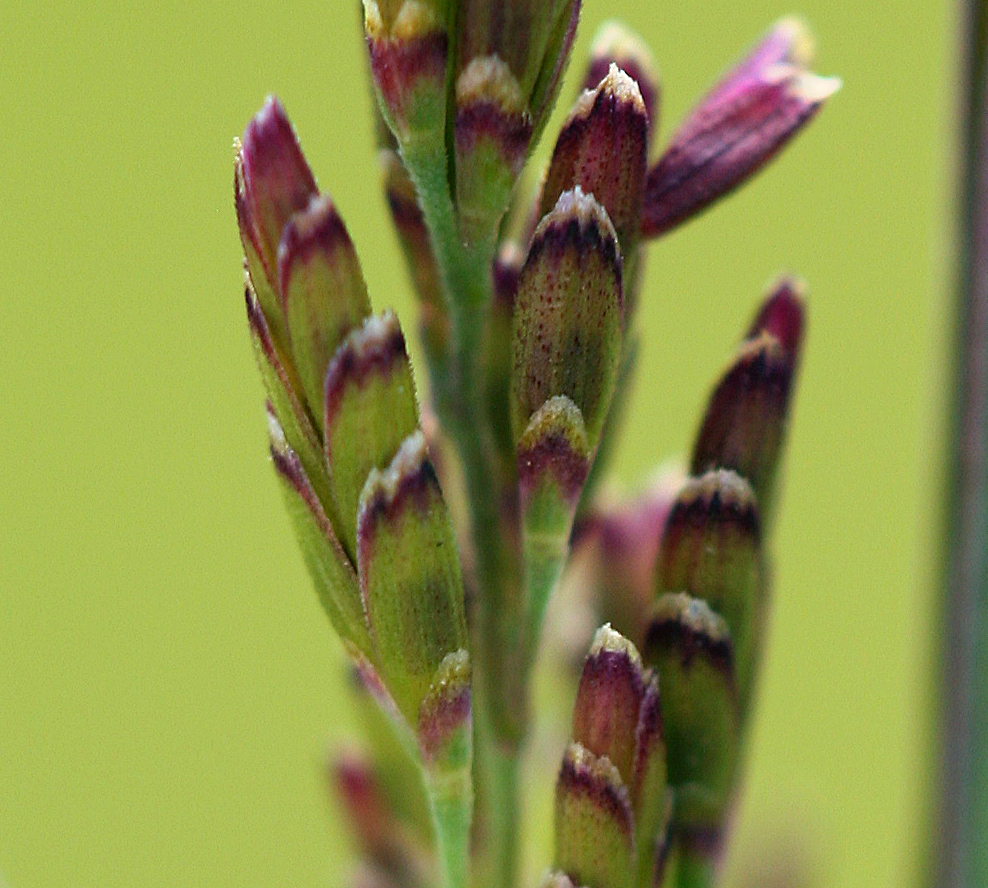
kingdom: Plantae
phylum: Tracheophyta
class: Liliopsida
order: Poales
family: Poaceae
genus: Torreyochloa
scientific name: Torreyochloa erecta
